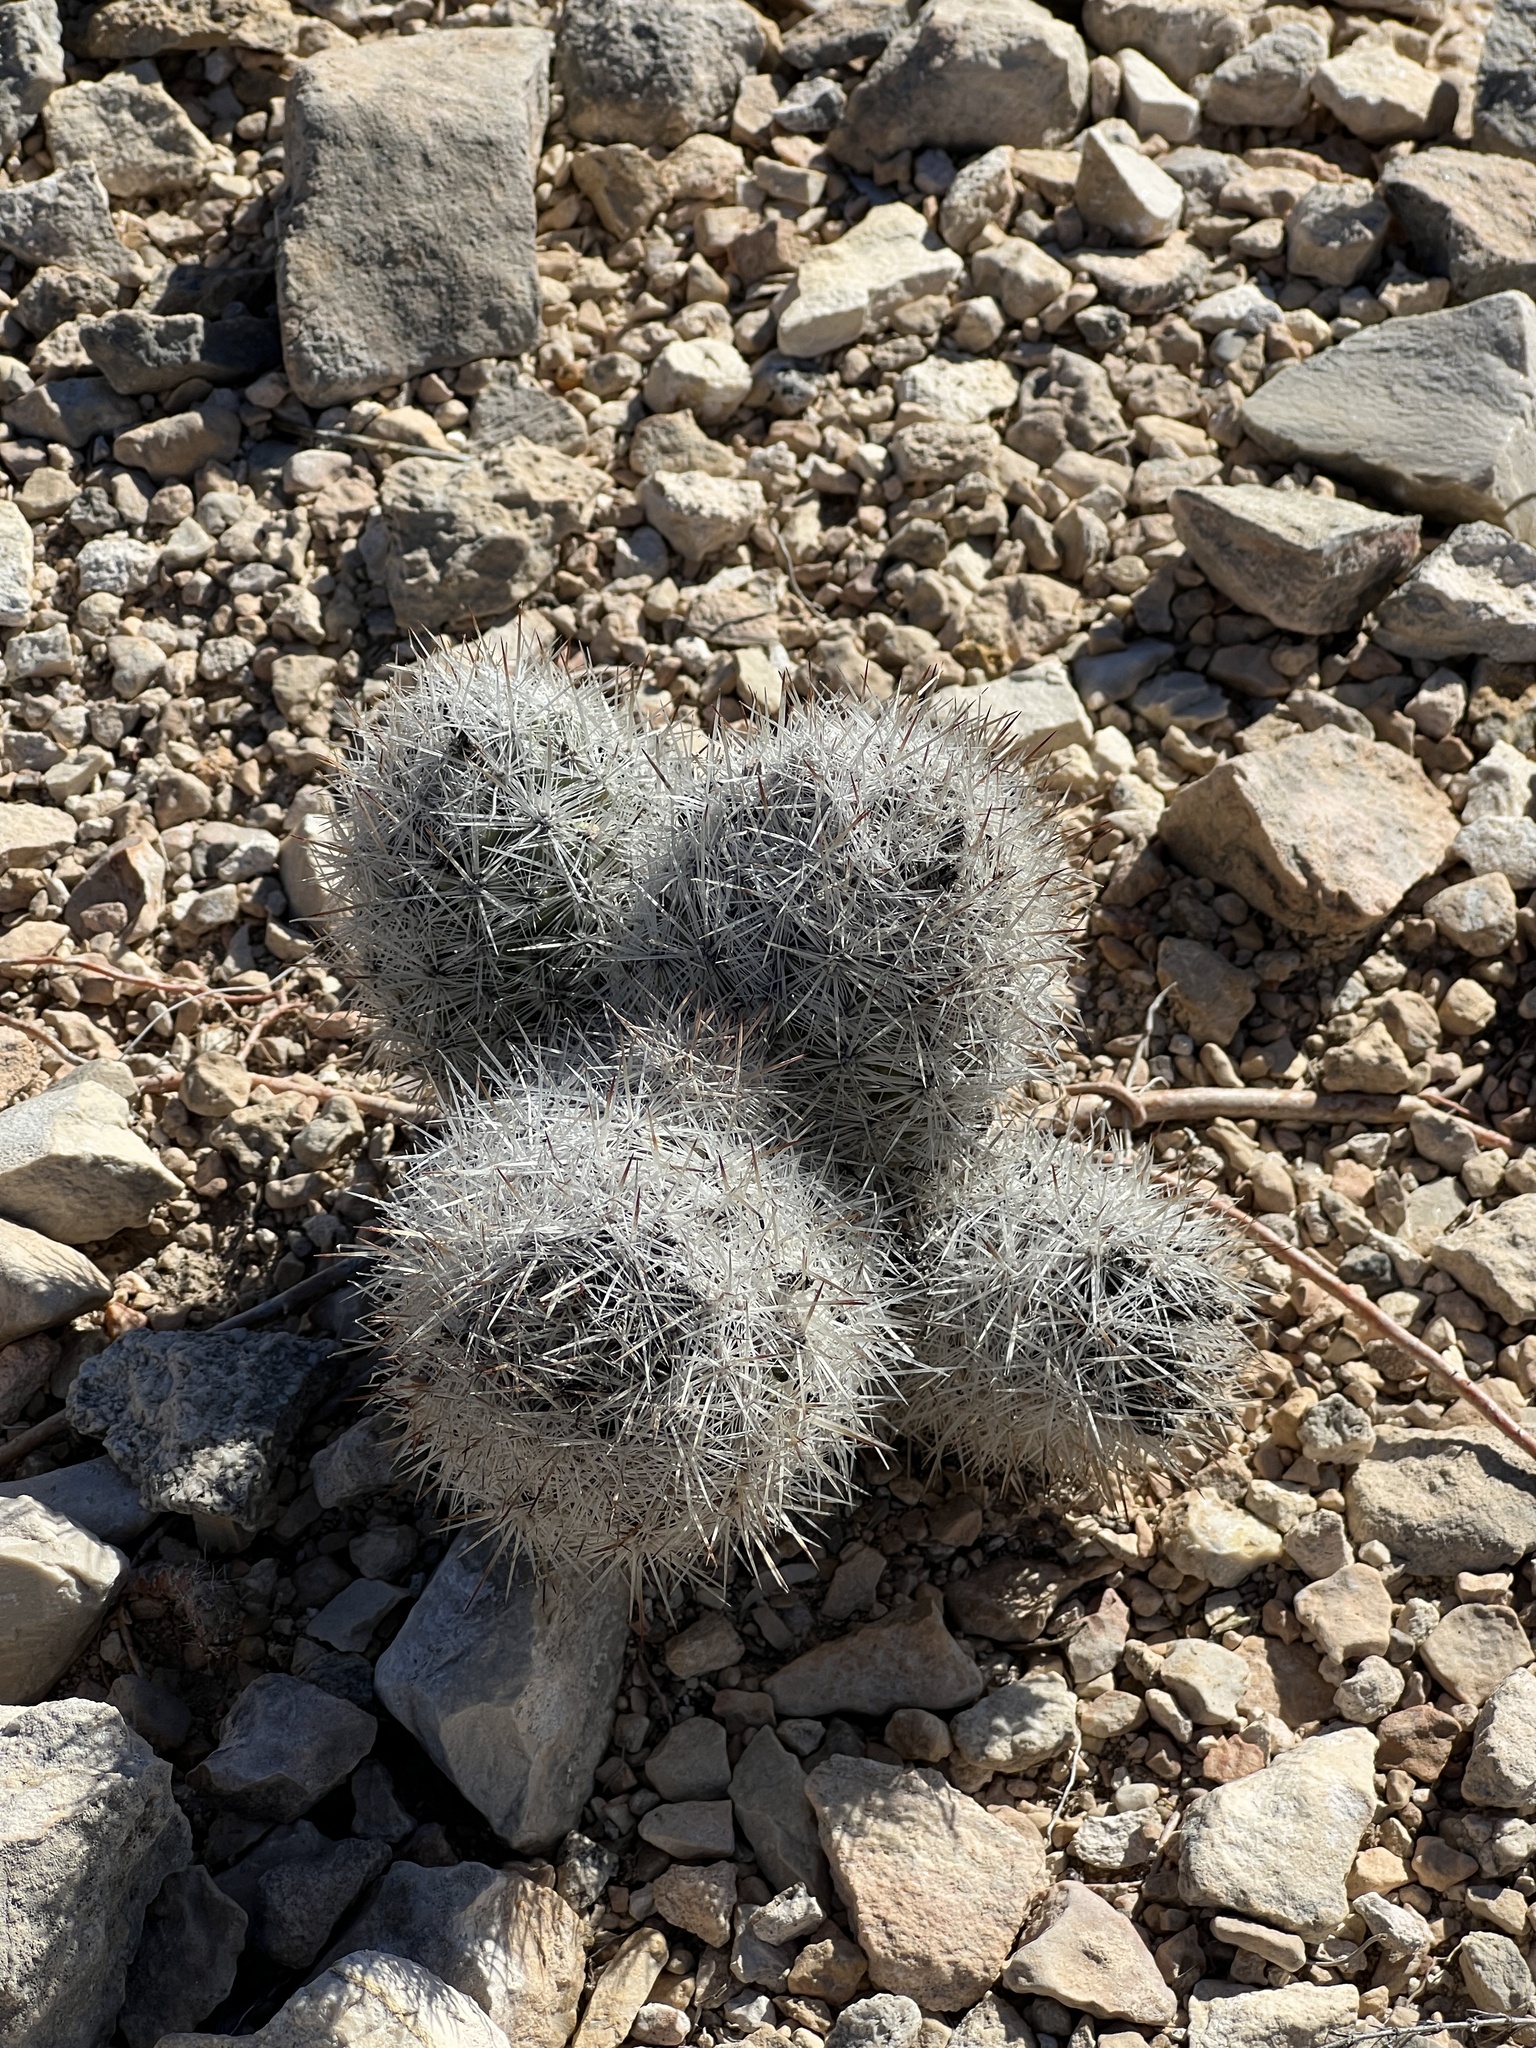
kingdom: Plantae
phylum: Tracheophyta
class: Magnoliopsida
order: Caryophyllales
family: Cactaceae
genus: Pelecyphora
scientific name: Pelecyphora tuberculosa
